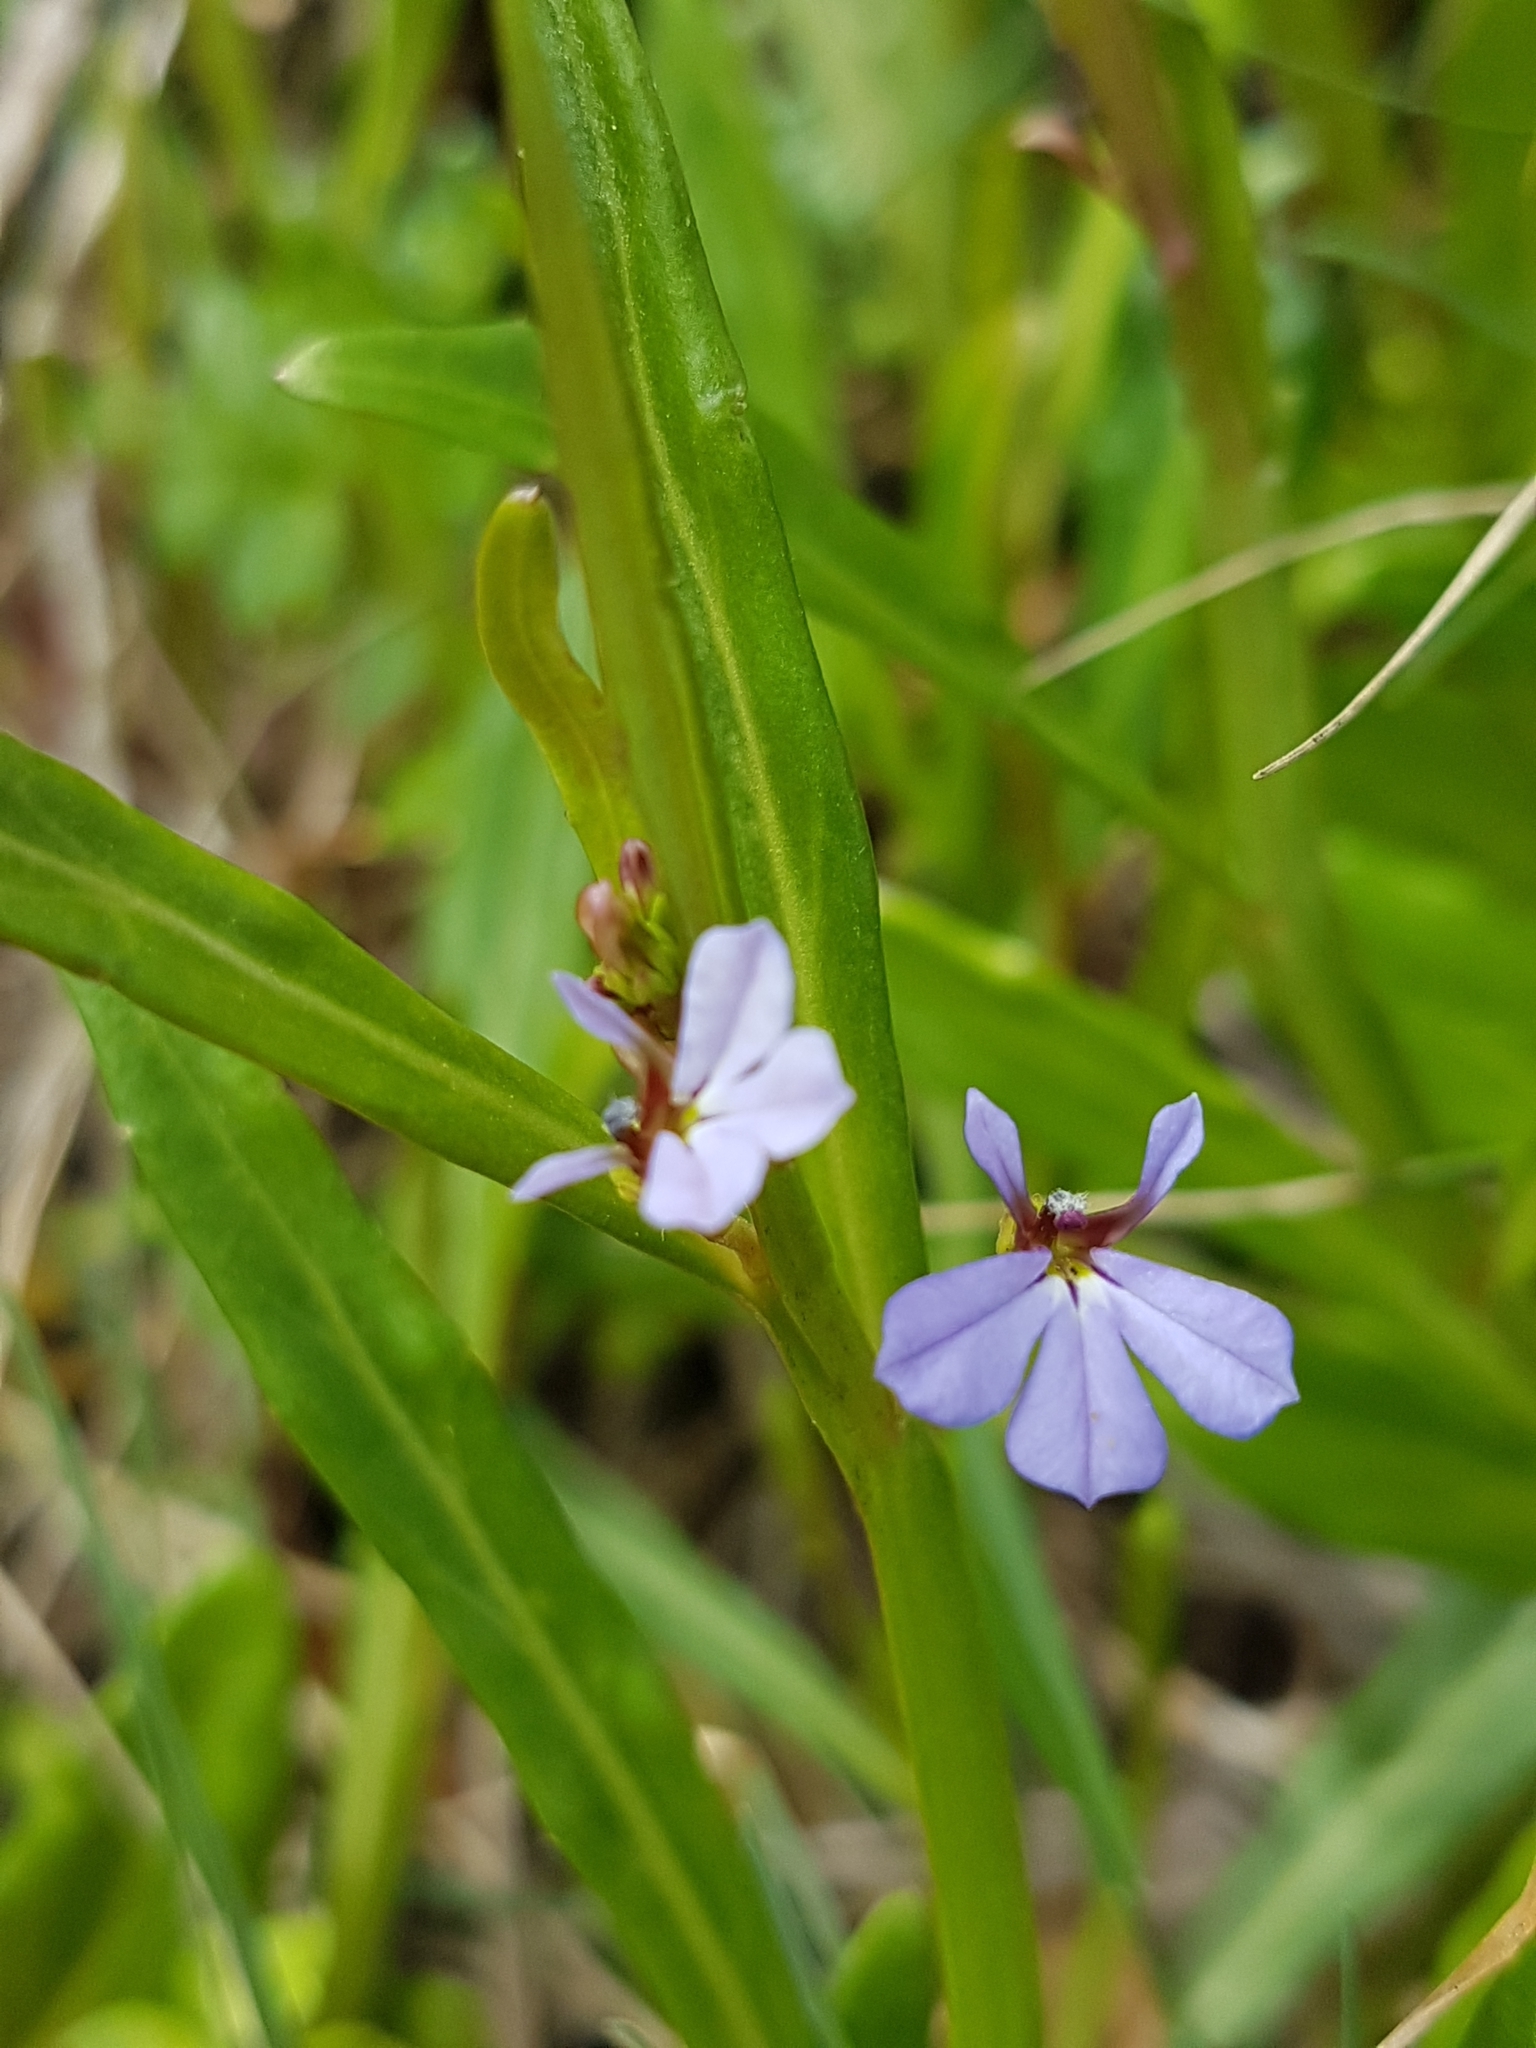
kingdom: Plantae
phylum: Tracheophyta
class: Magnoliopsida
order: Asterales
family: Campanulaceae
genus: Lobelia
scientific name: Lobelia anceps
